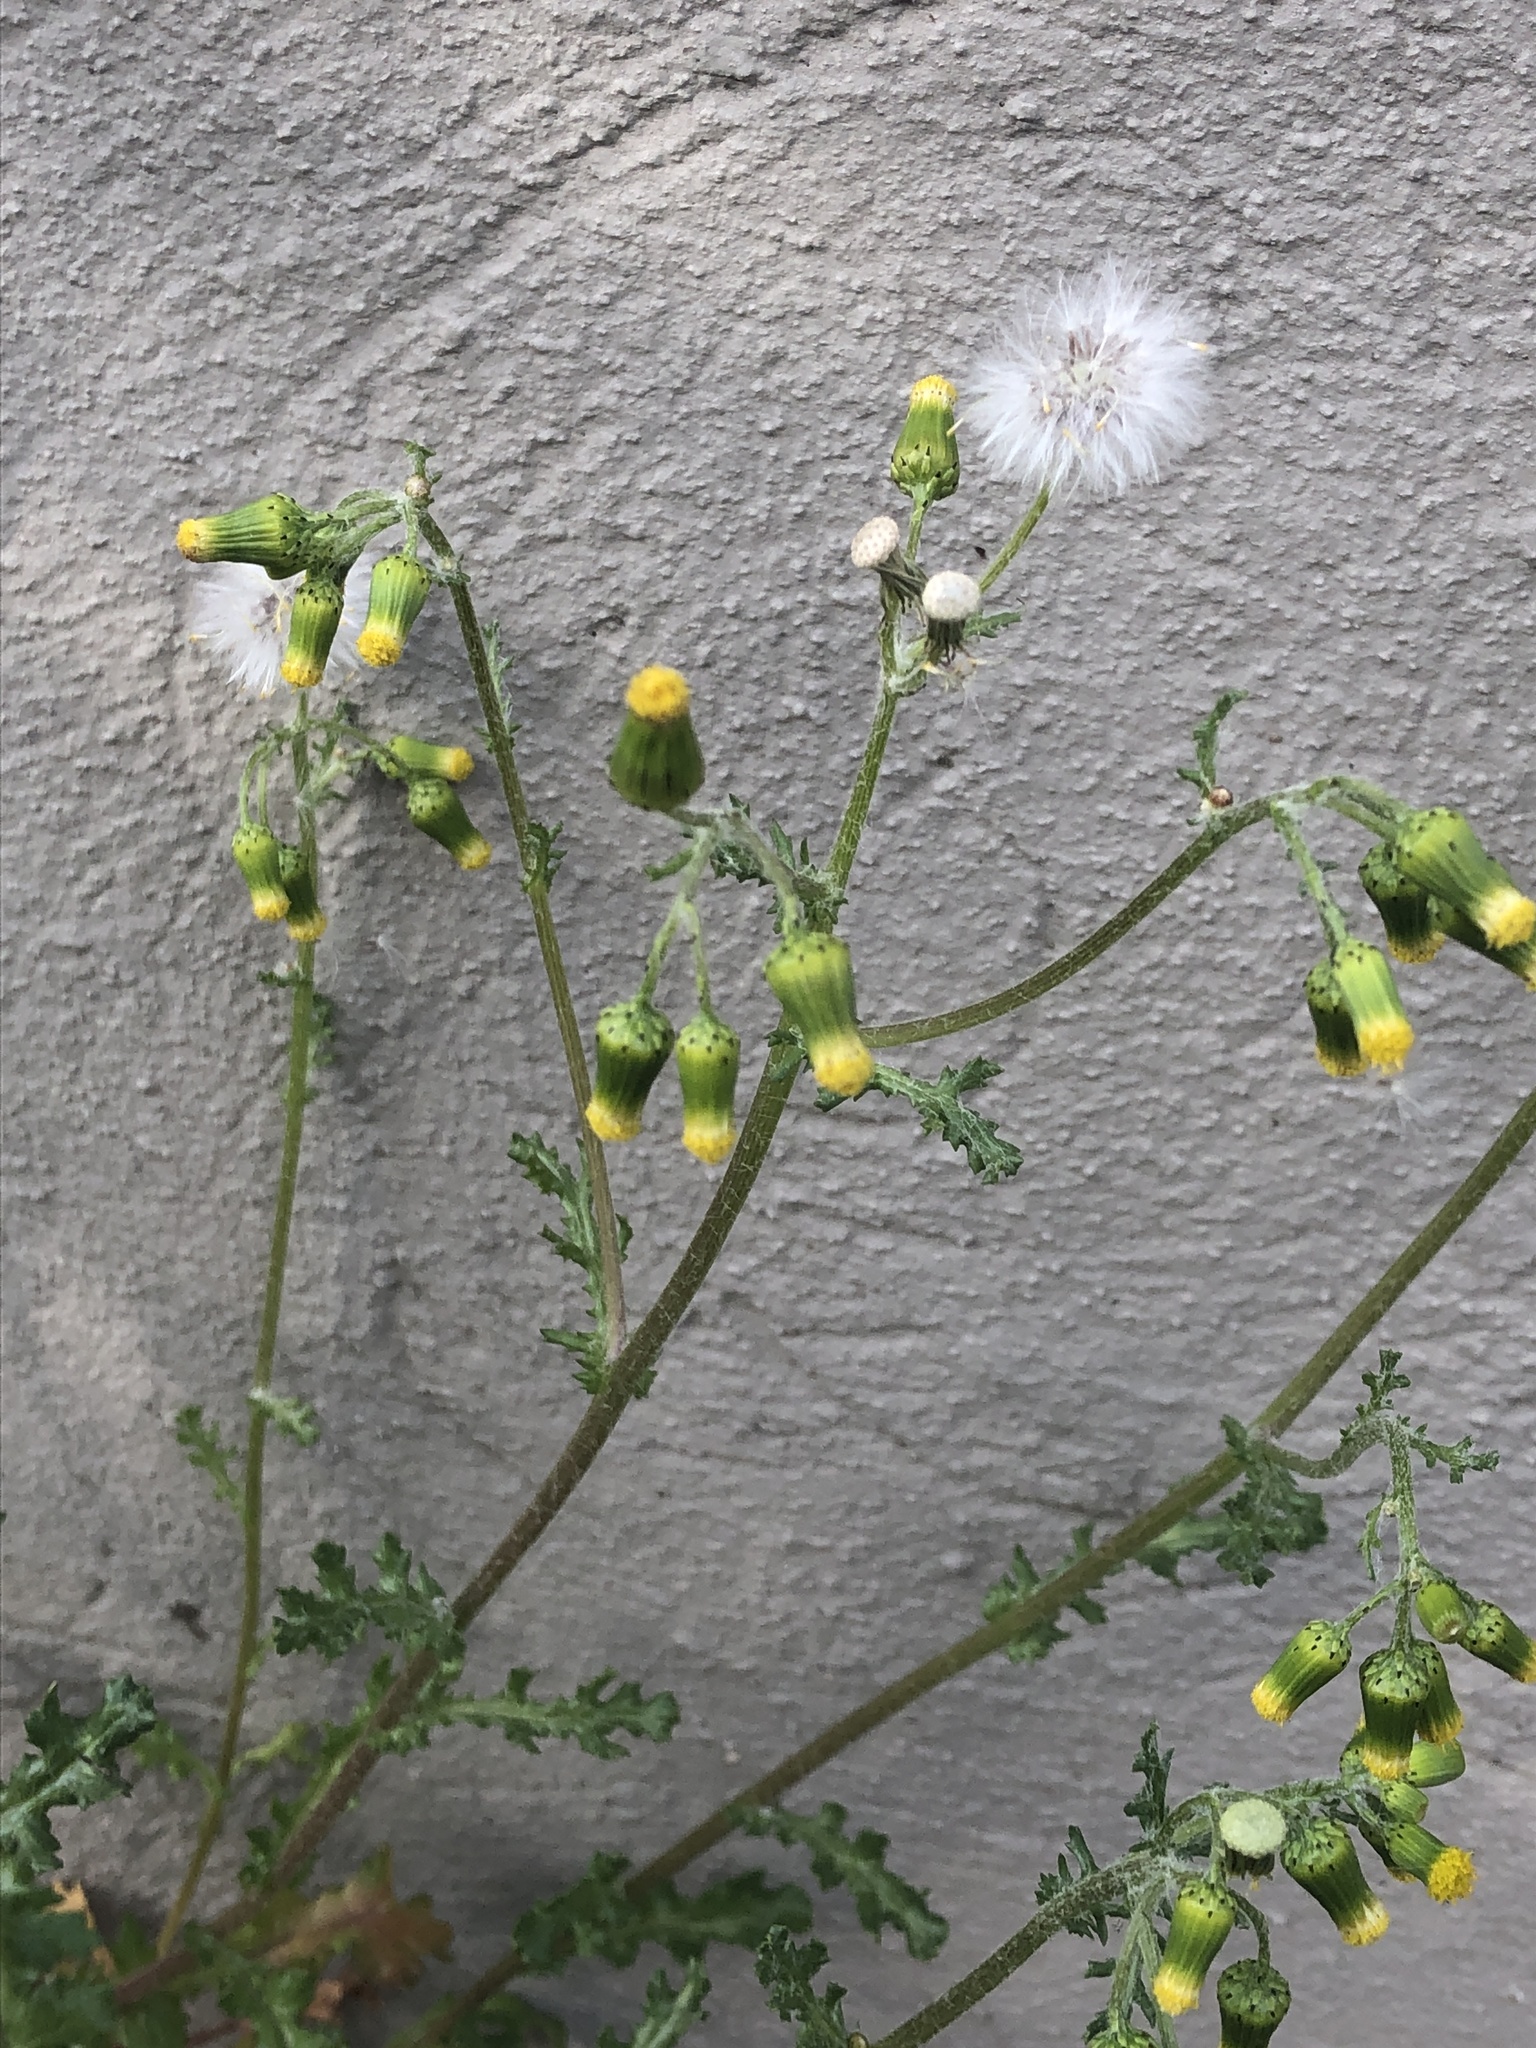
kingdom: Plantae
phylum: Tracheophyta
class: Magnoliopsida
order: Asterales
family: Asteraceae
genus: Senecio
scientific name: Senecio vulgaris
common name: Old-man-in-the-spring
